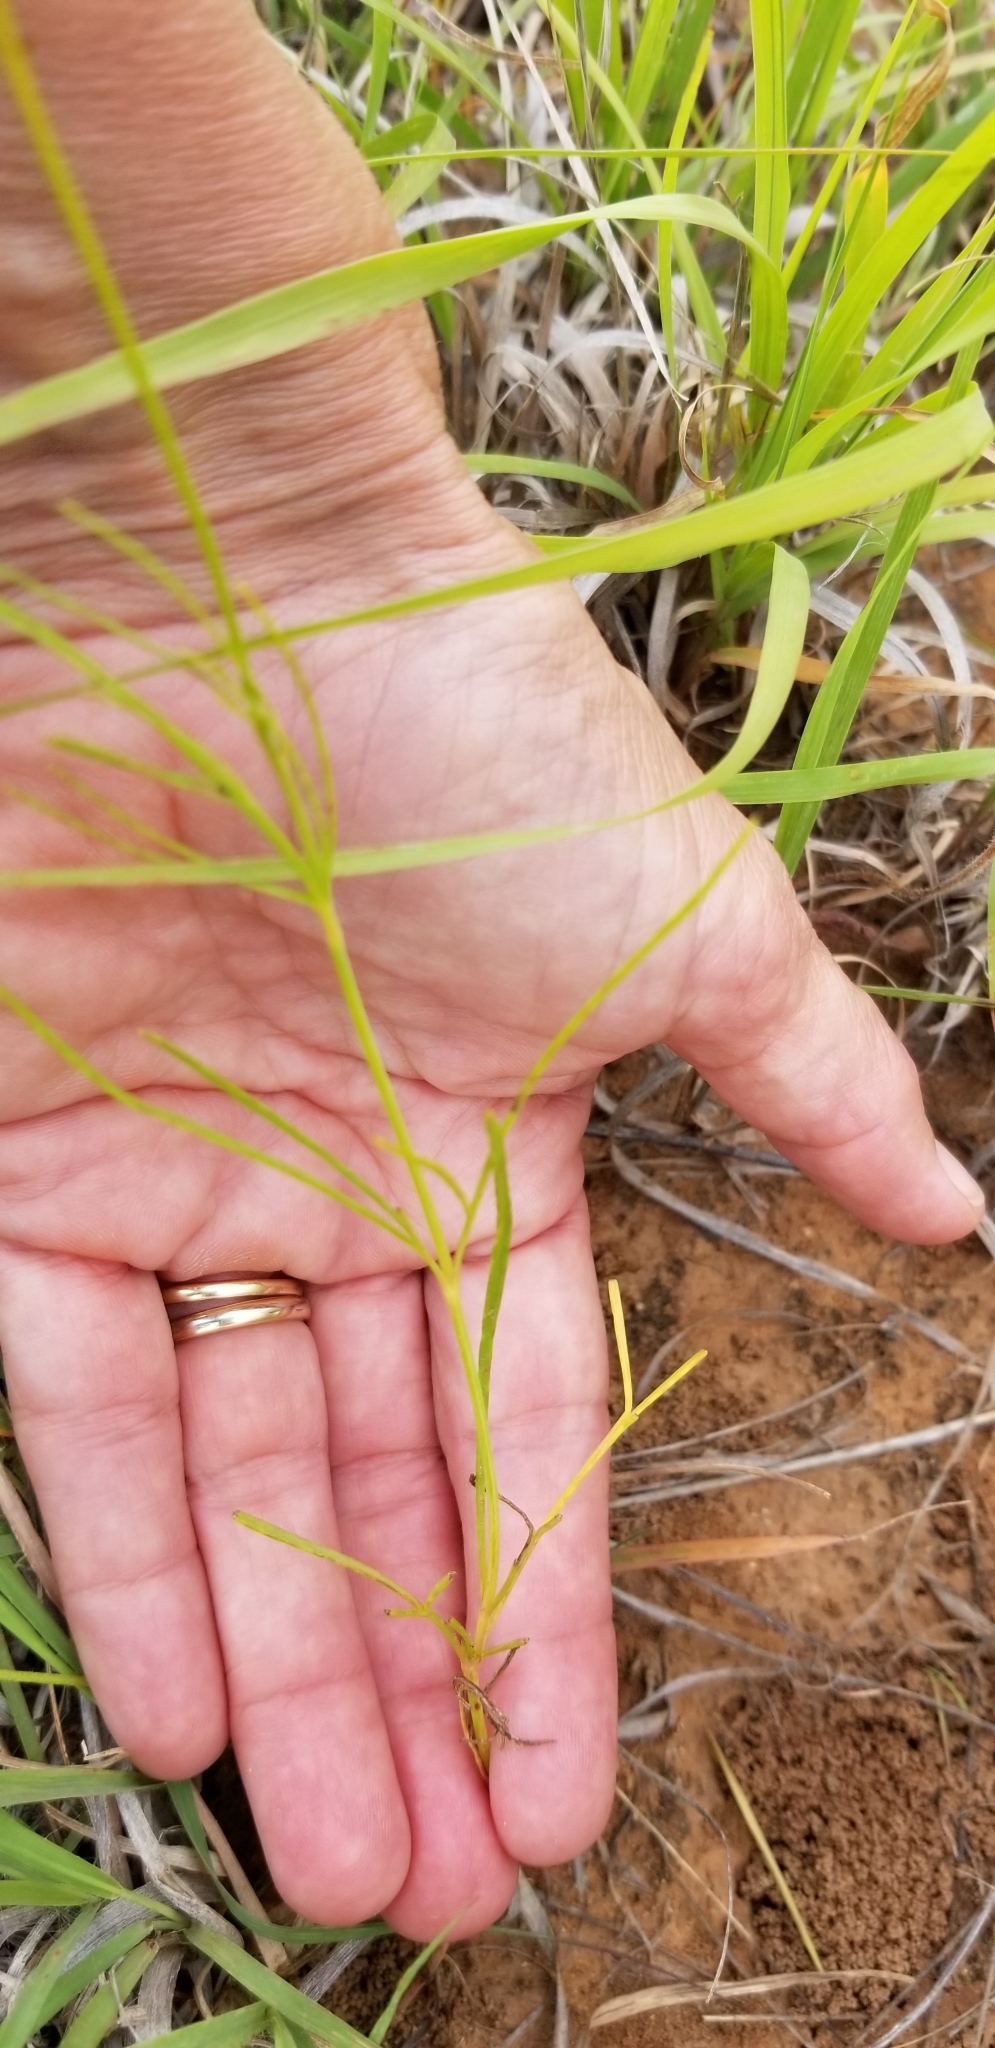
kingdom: Plantae
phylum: Tracheophyta
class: Magnoliopsida
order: Asterales
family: Asteraceae
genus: Thelesperma
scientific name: Thelesperma filifolium
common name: Stiff greenthread
